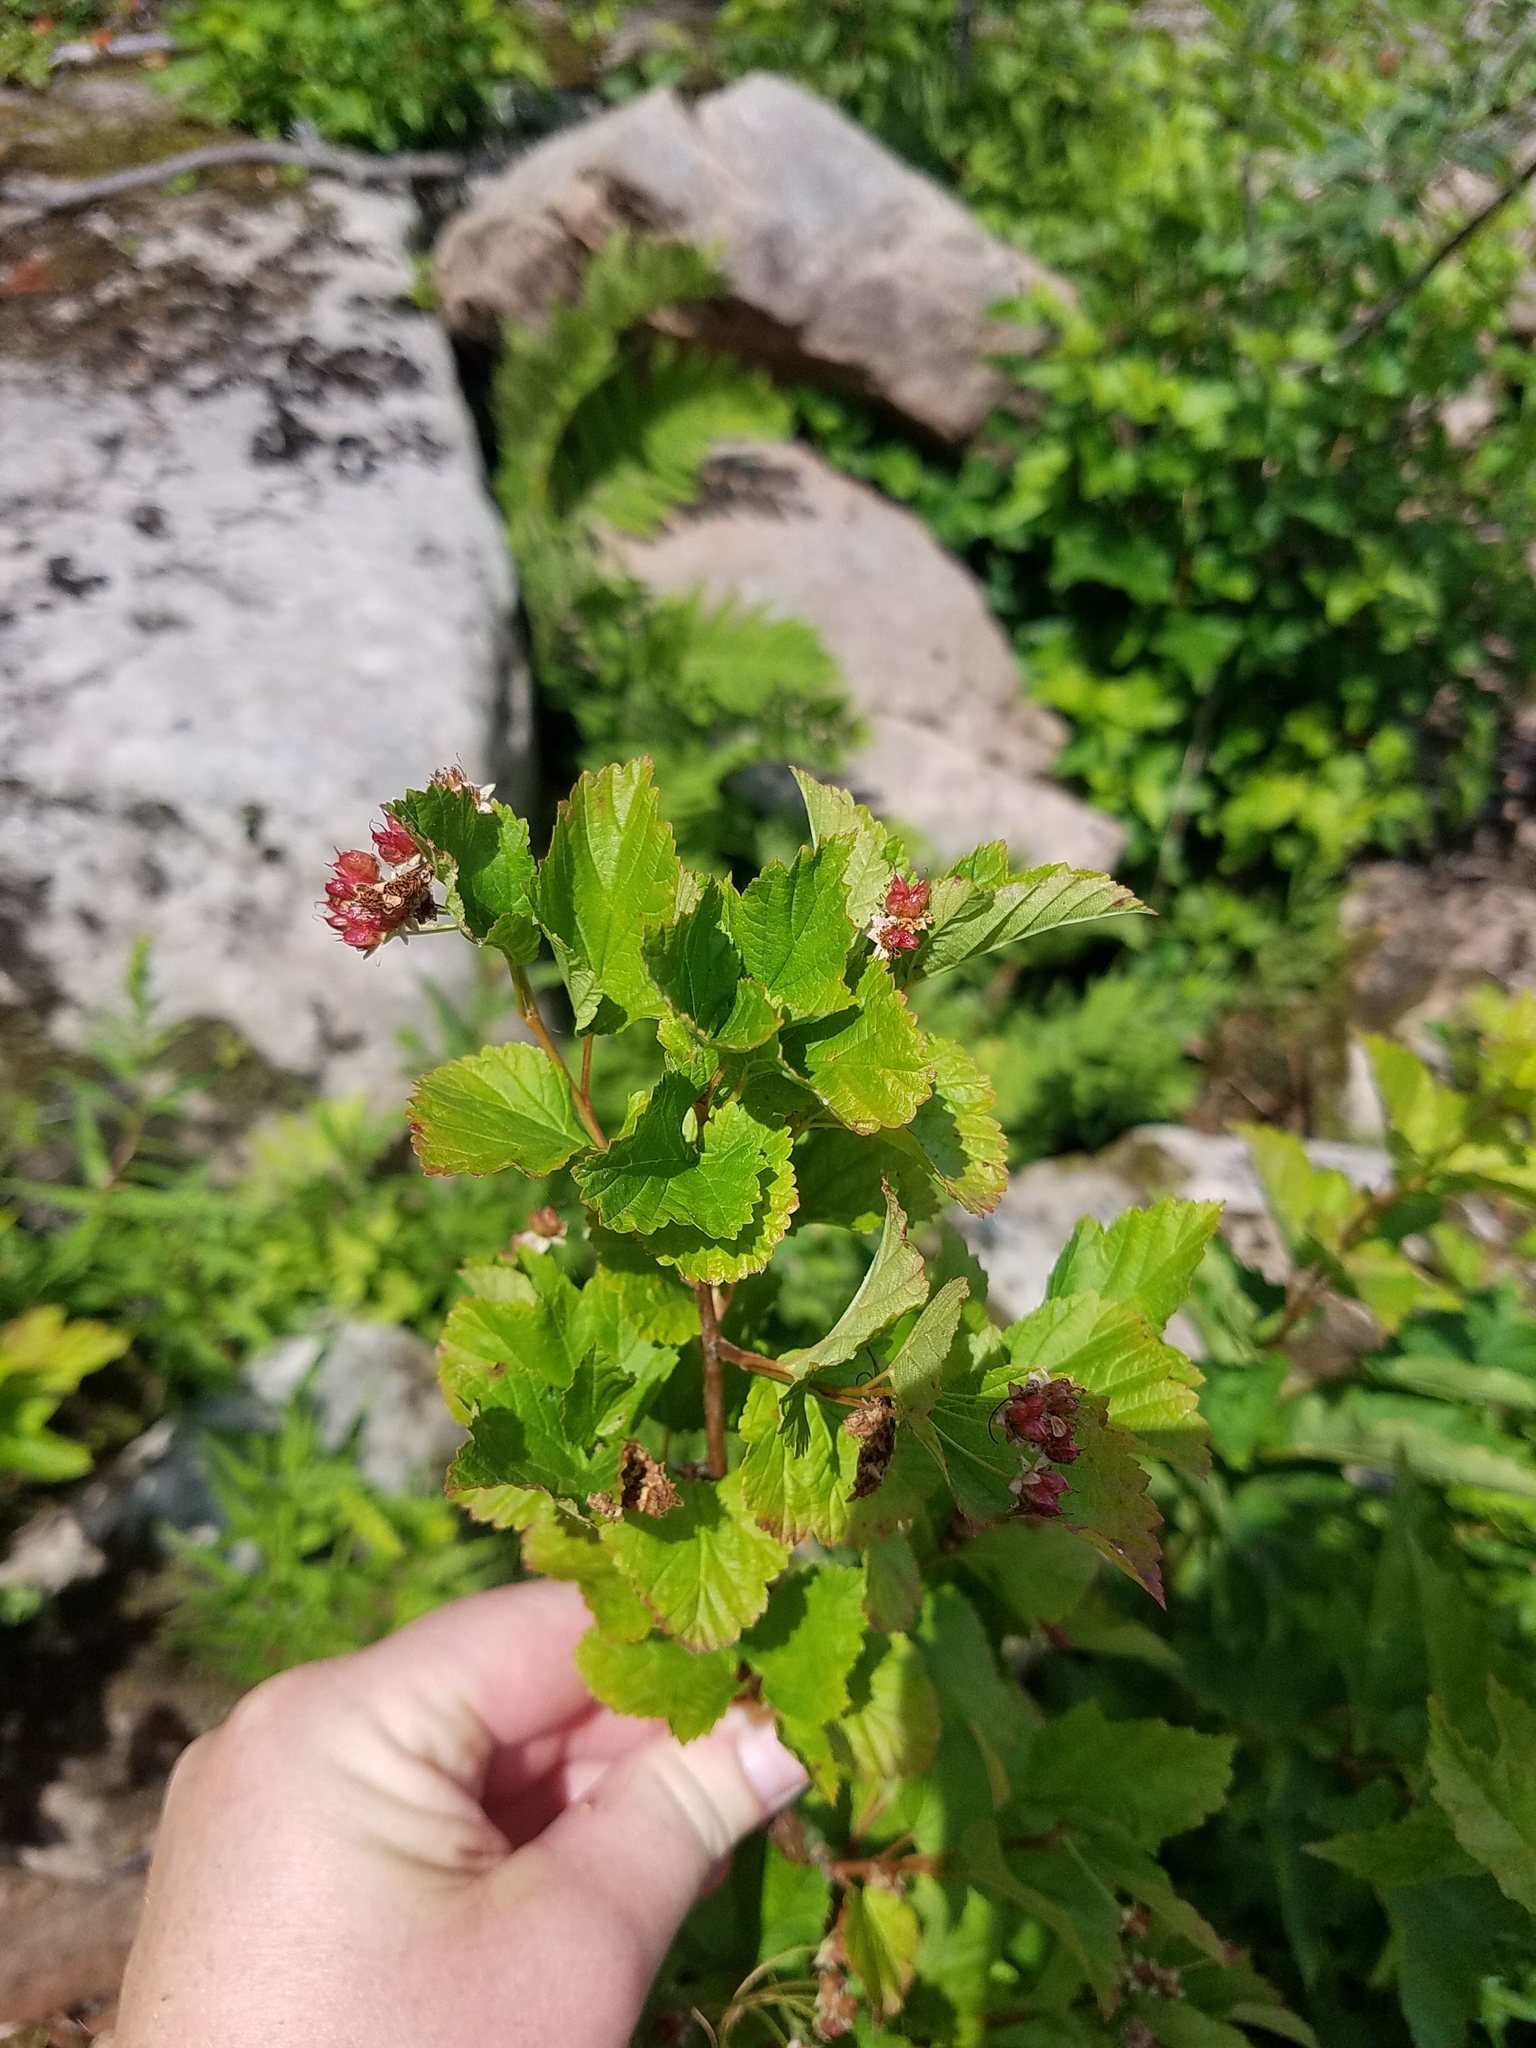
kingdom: Plantae
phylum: Tracheophyta
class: Magnoliopsida
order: Rosales
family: Rosaceae
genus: Physocarpus
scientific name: Physocarpus opulifolius
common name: Ninebark
